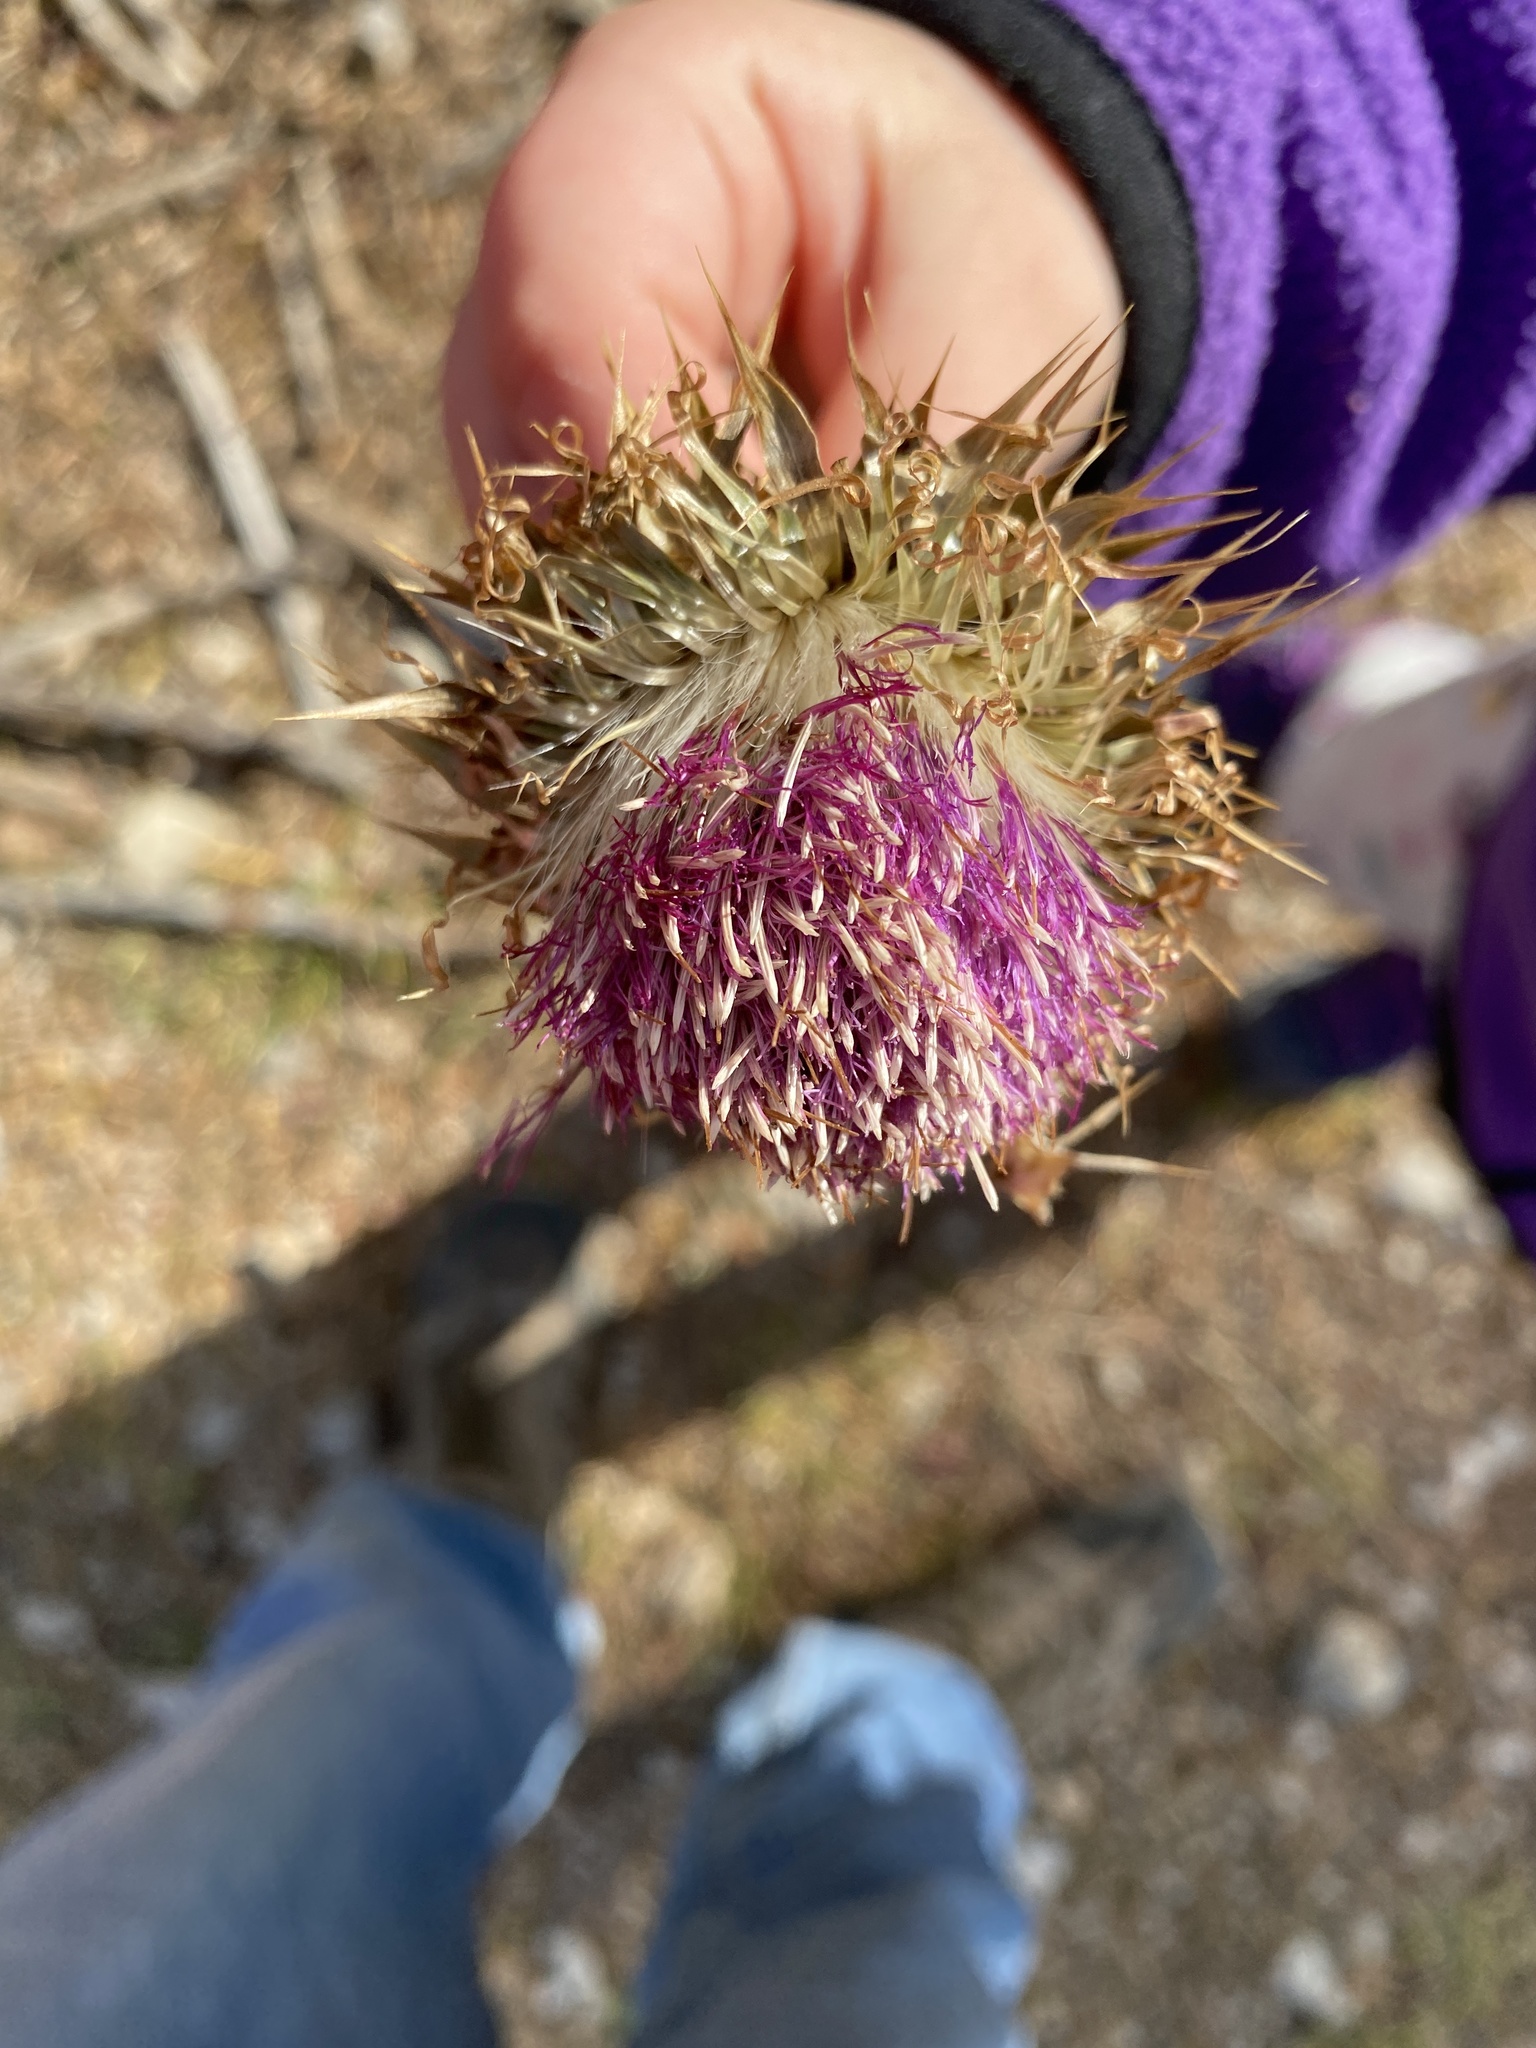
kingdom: Plantae
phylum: Tracheophyta
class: Magnoliopsida
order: Asterales
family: Asteraceae
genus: Carduus
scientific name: Carduus nutans
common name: Musk thistle
